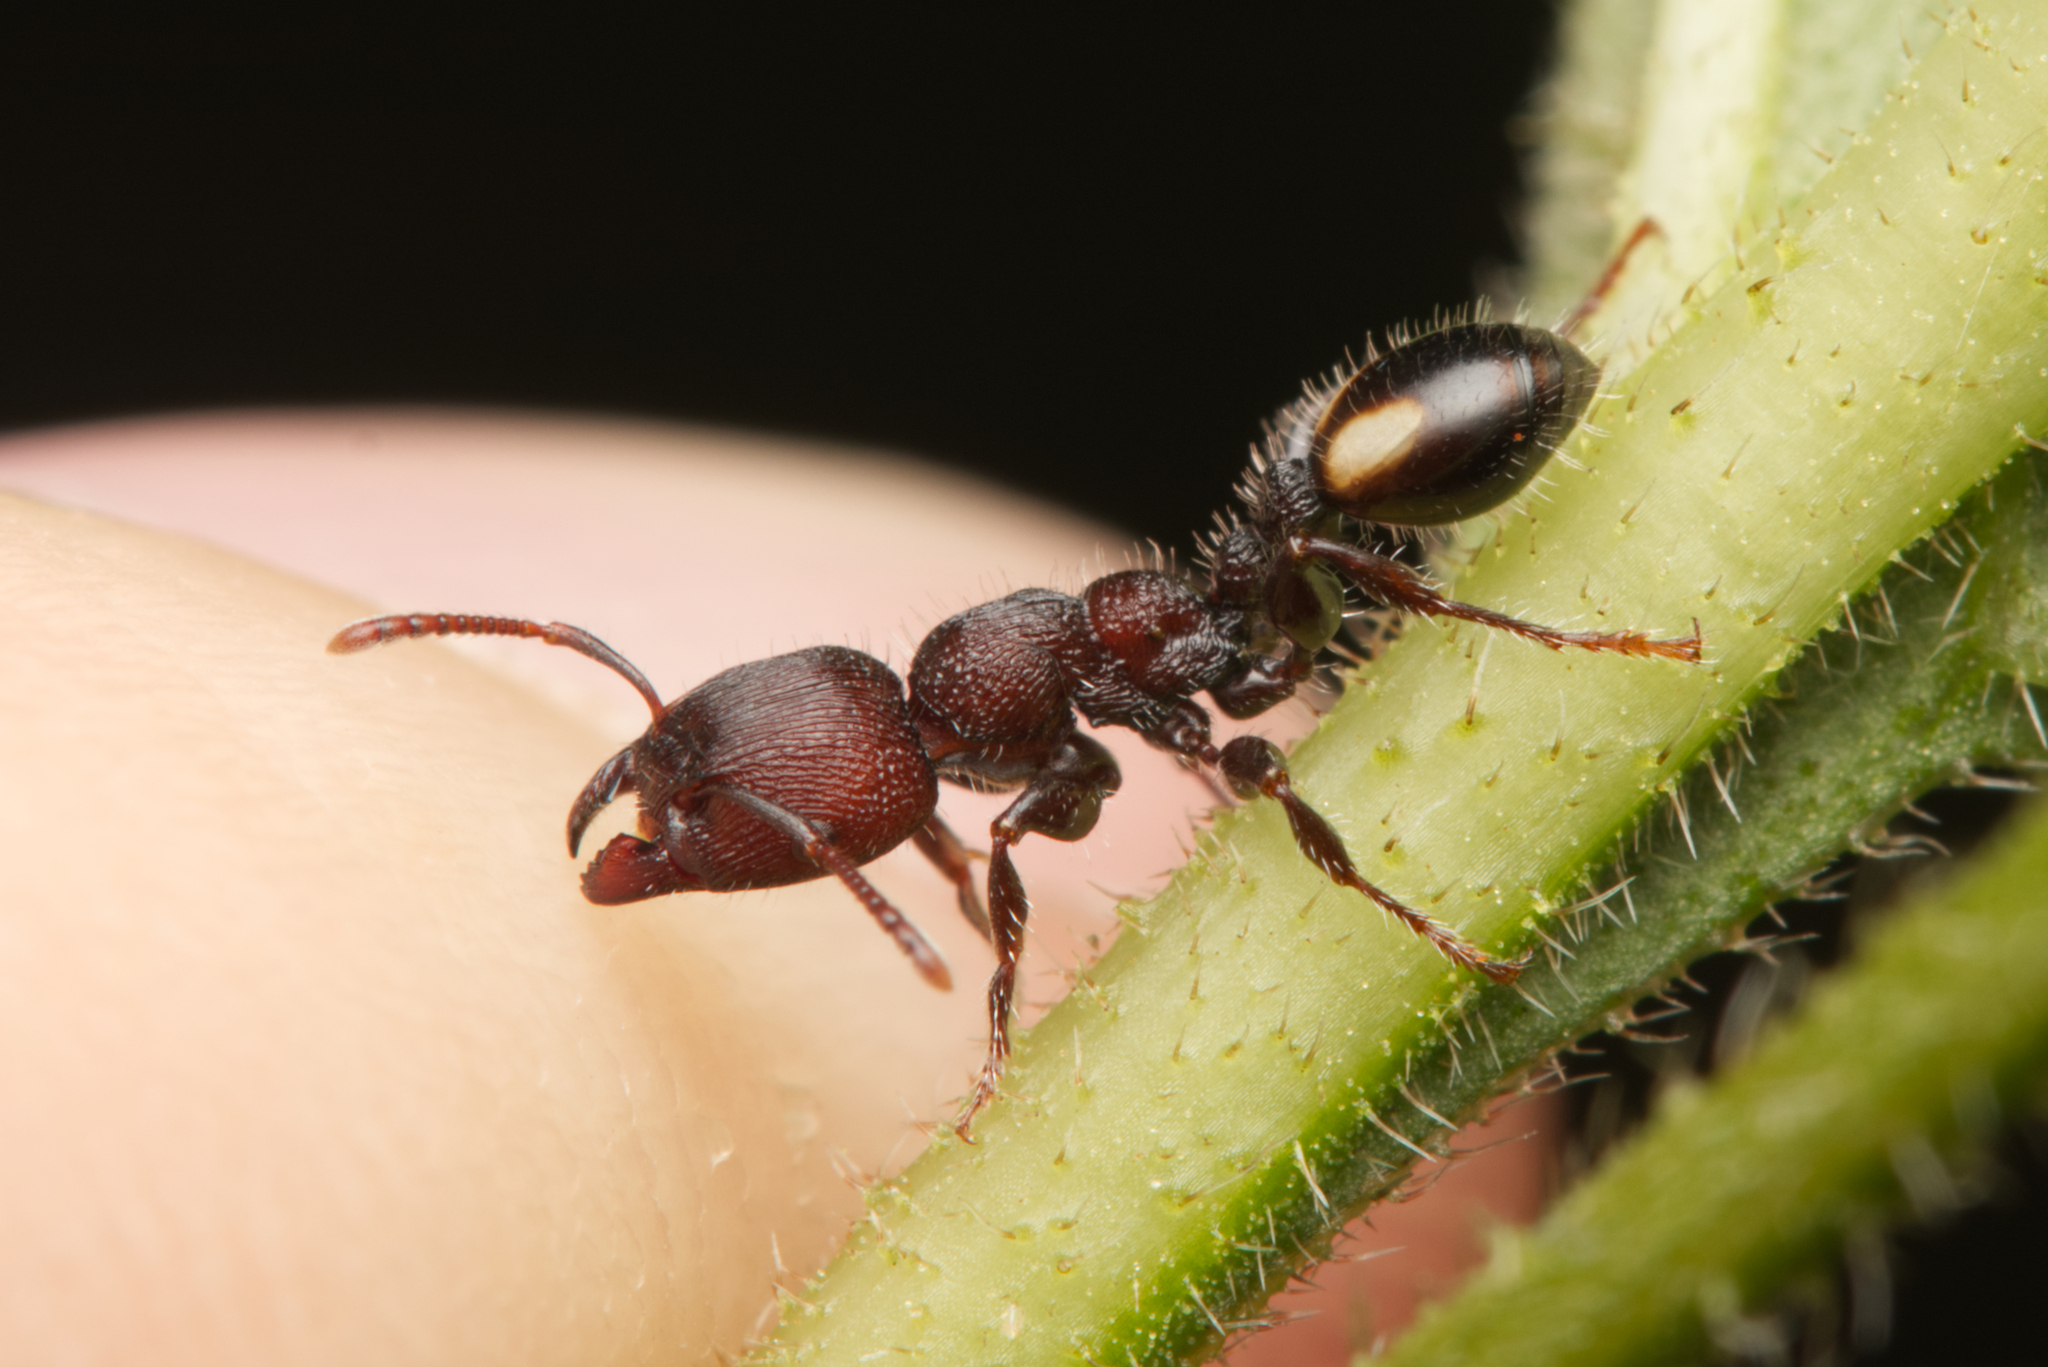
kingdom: Animalia
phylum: Arthropoda
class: Insecta
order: Hymenoptera
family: Formicidae
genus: Podomyrma
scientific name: Podomyrma
